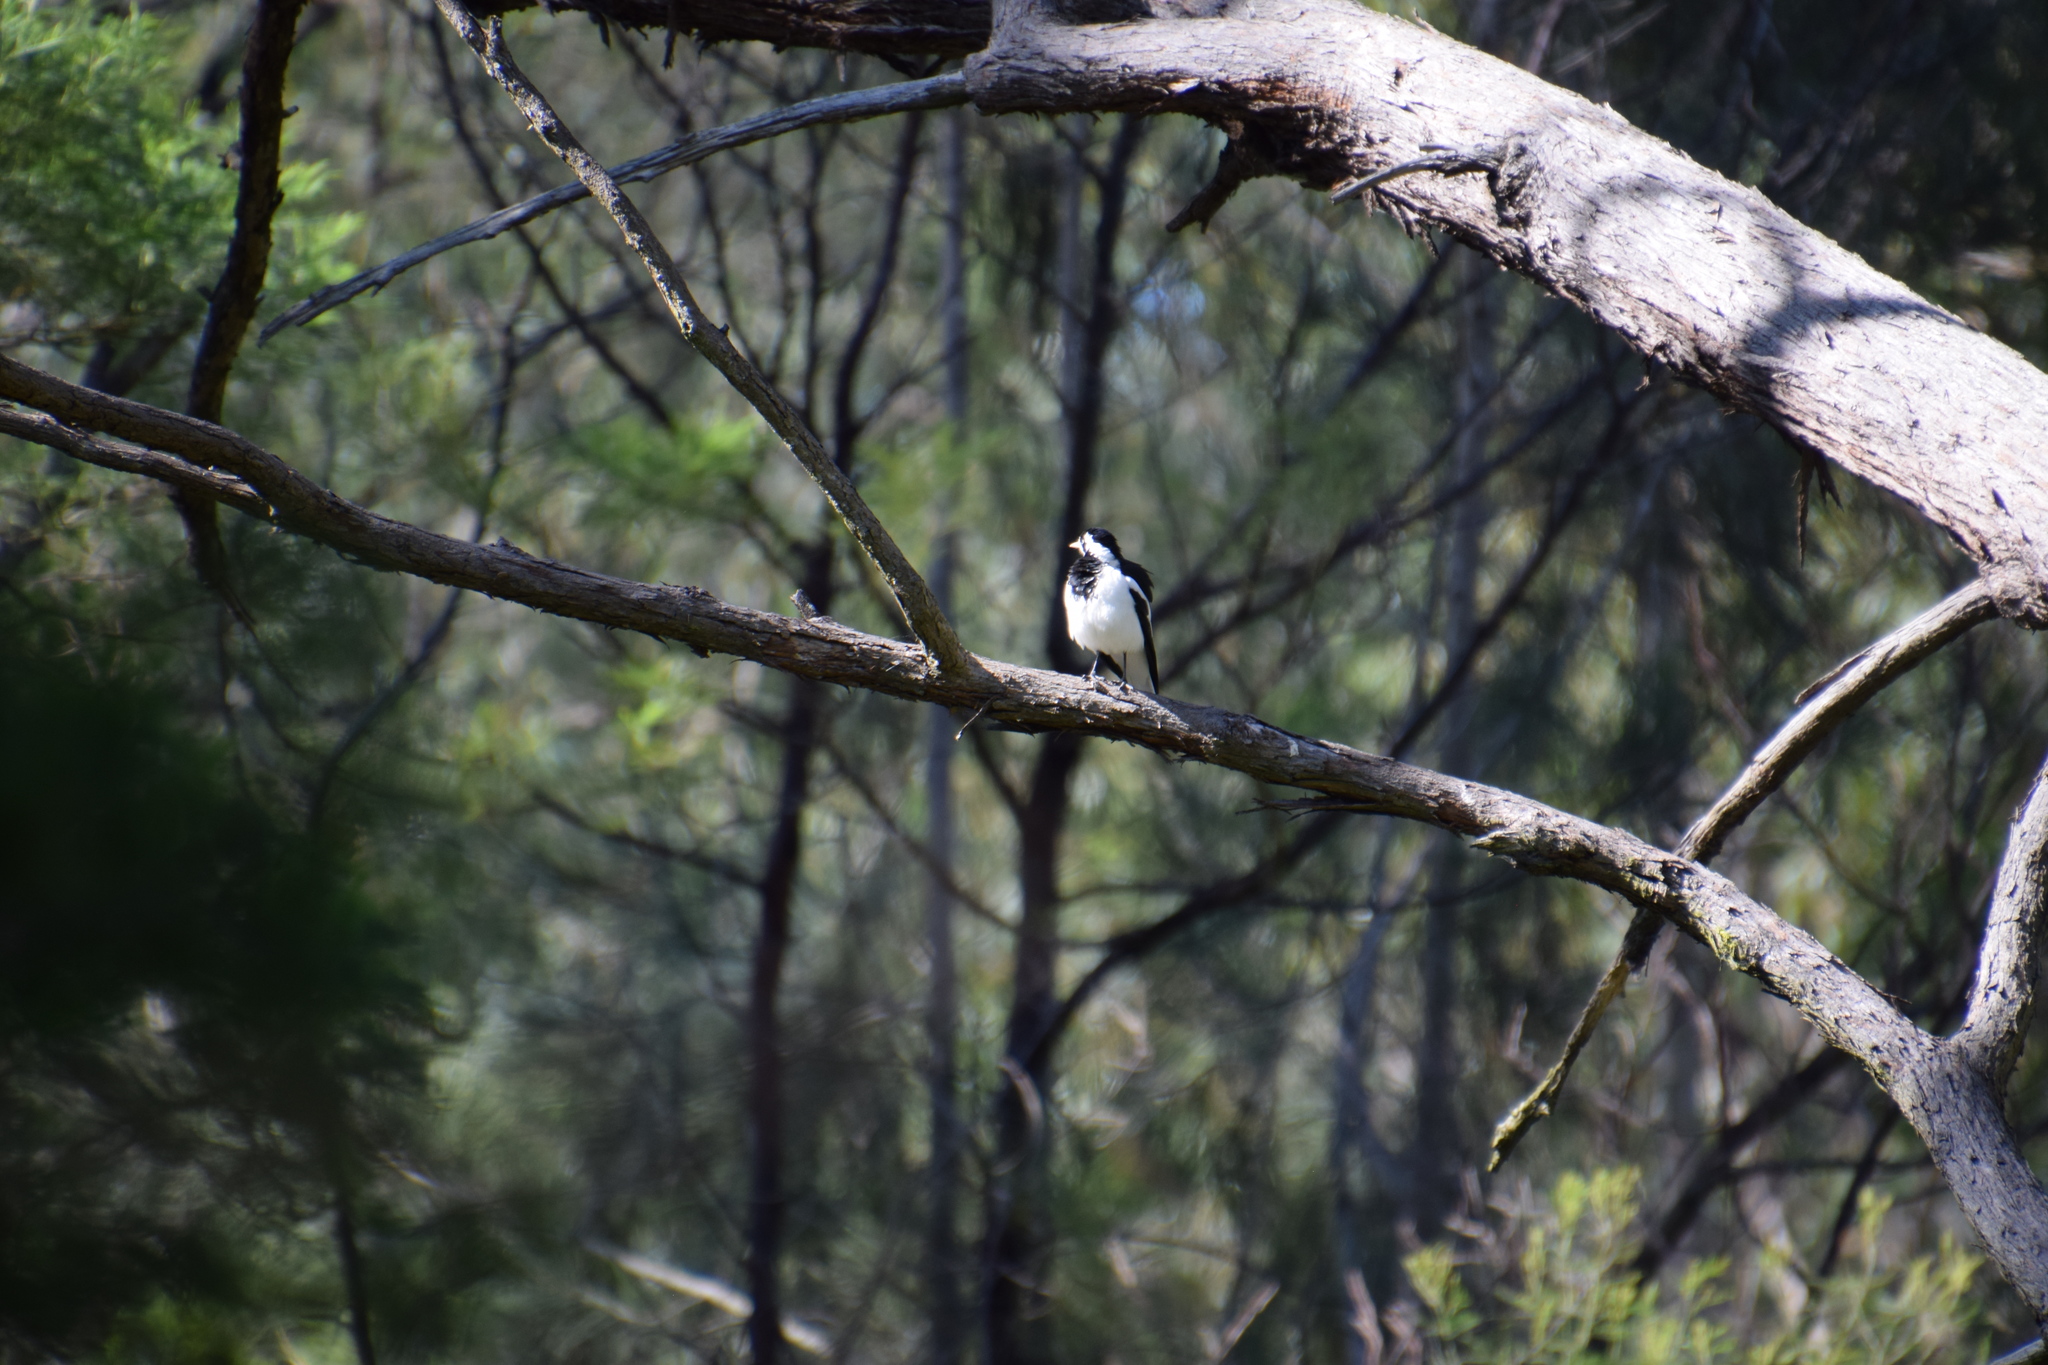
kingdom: Animalia
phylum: Chordata
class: Aves
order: Passeriformes
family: Monarchidae
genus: Grallina
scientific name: Grallina cyanoleuca
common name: Magpie-lark
